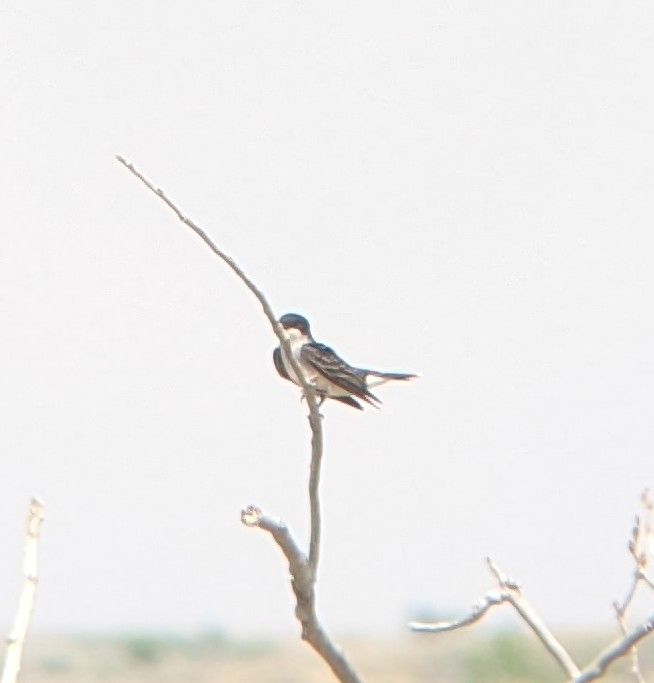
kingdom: Animalia
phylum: Chordata
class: Aves
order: Passeriformes
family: Tyrannidae
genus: Tyrannus
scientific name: Tyrannus tyrannus
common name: Eastern kingbird
